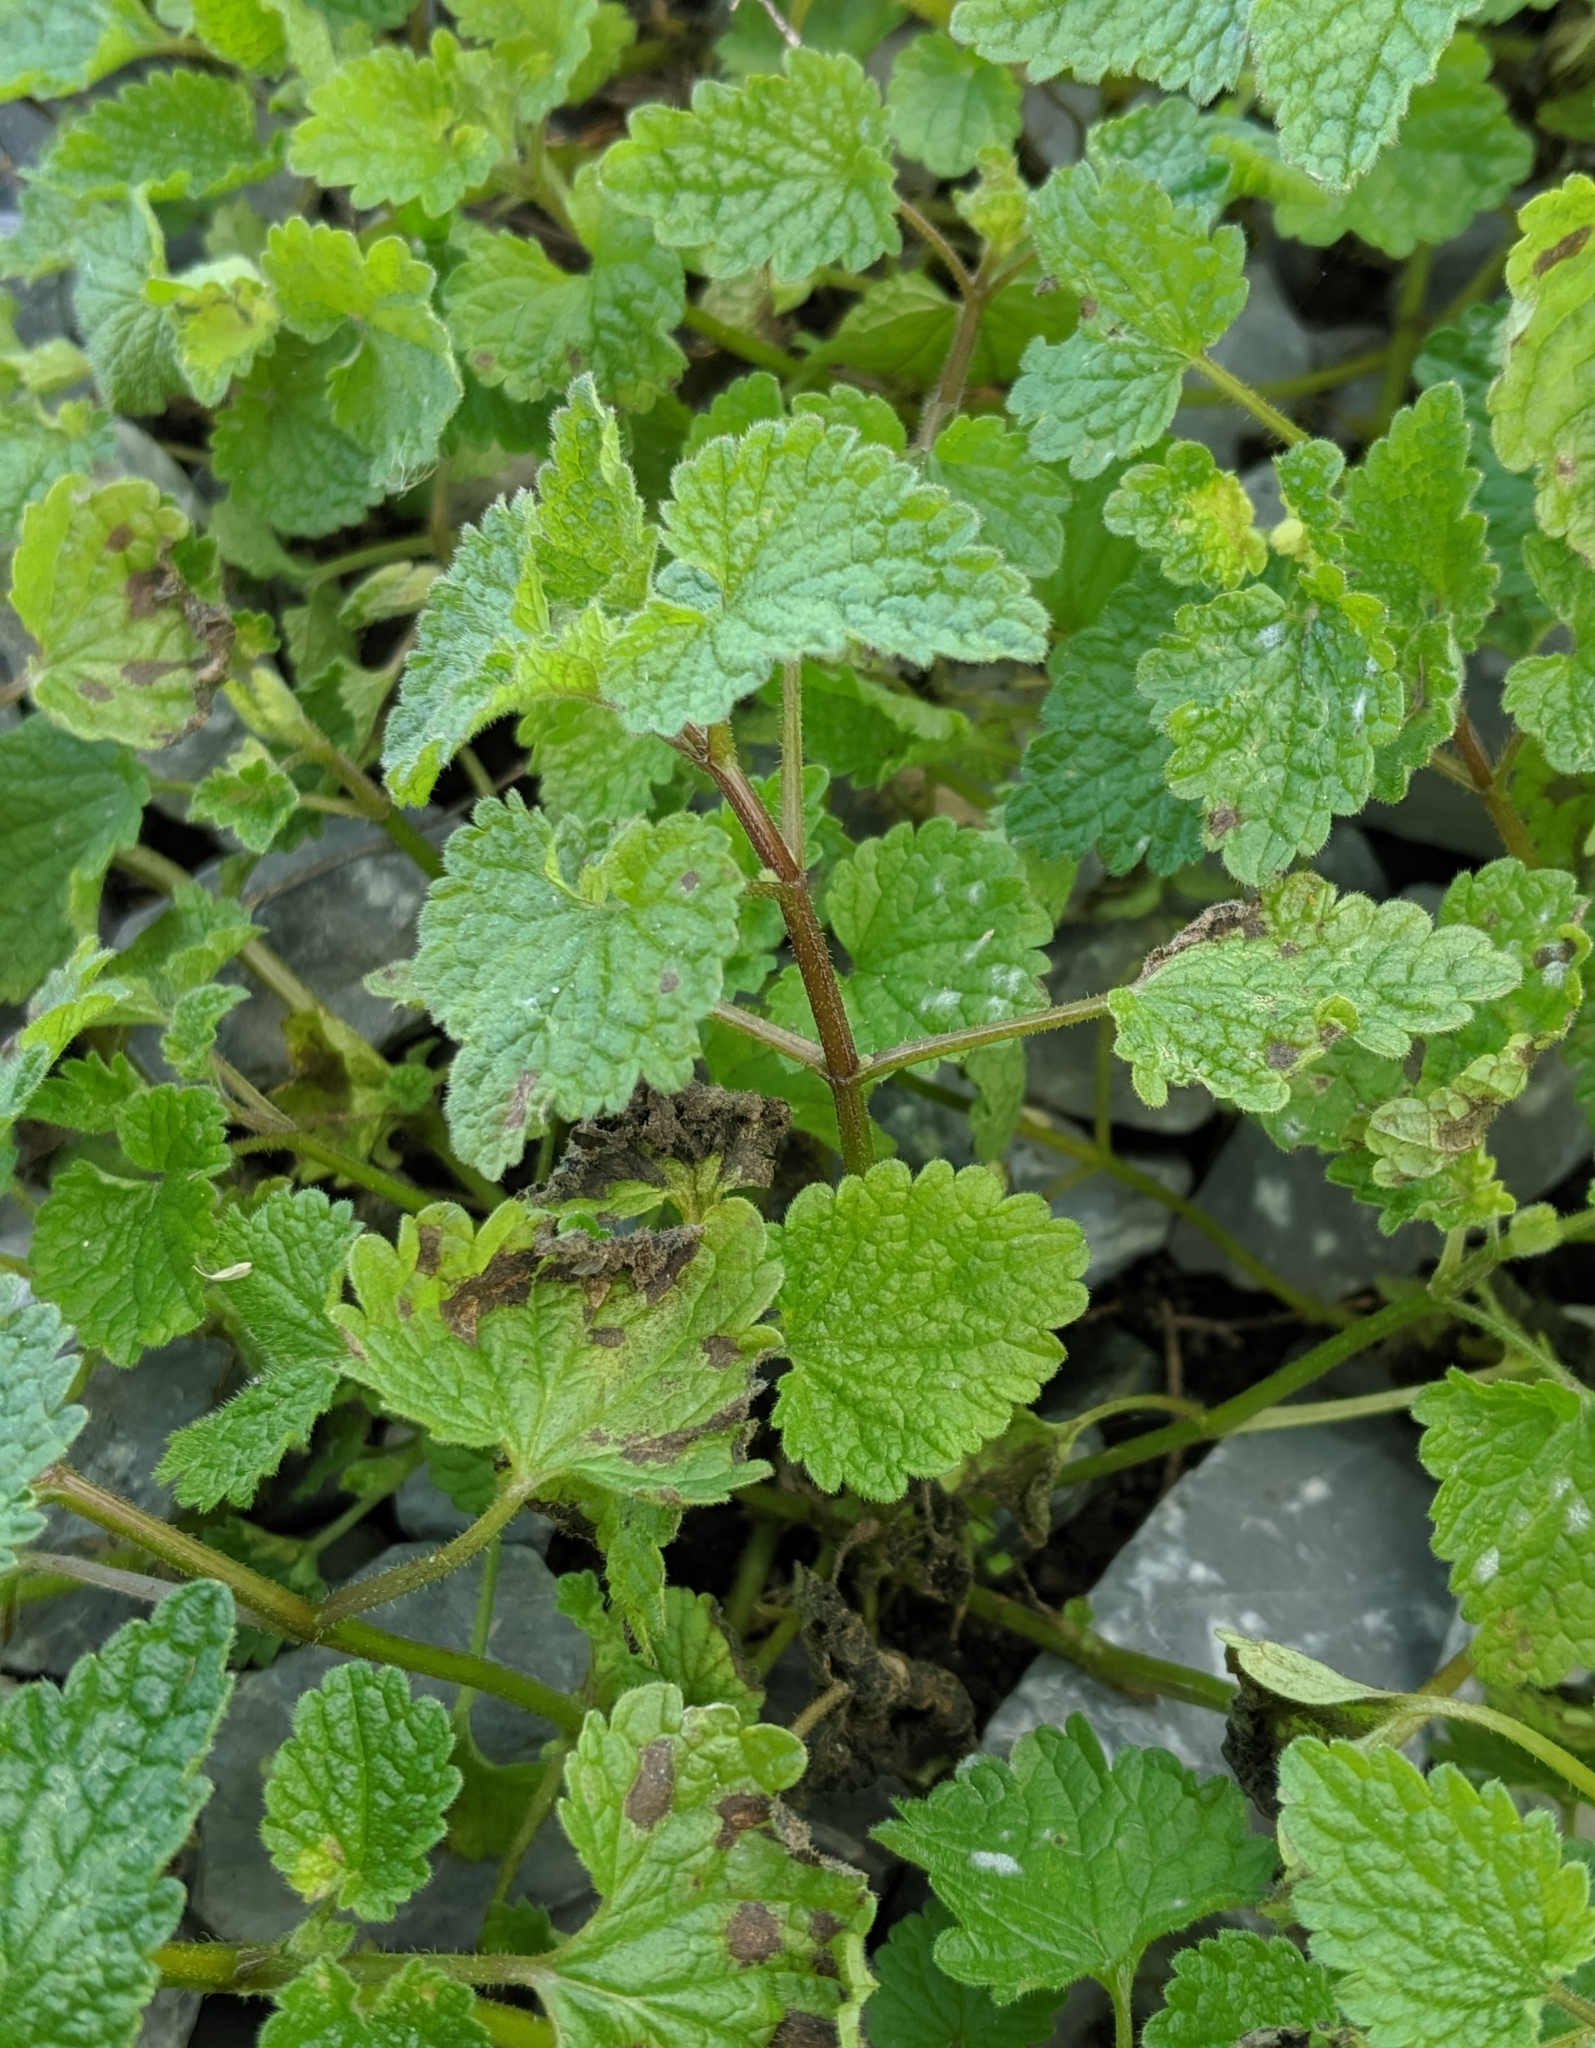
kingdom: Plantae
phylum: Tracheophyta
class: Magnoliopsida
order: Lamiales
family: Lamiaceae
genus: Lamium
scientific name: Lamium purpureum
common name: Red dead-nettle
